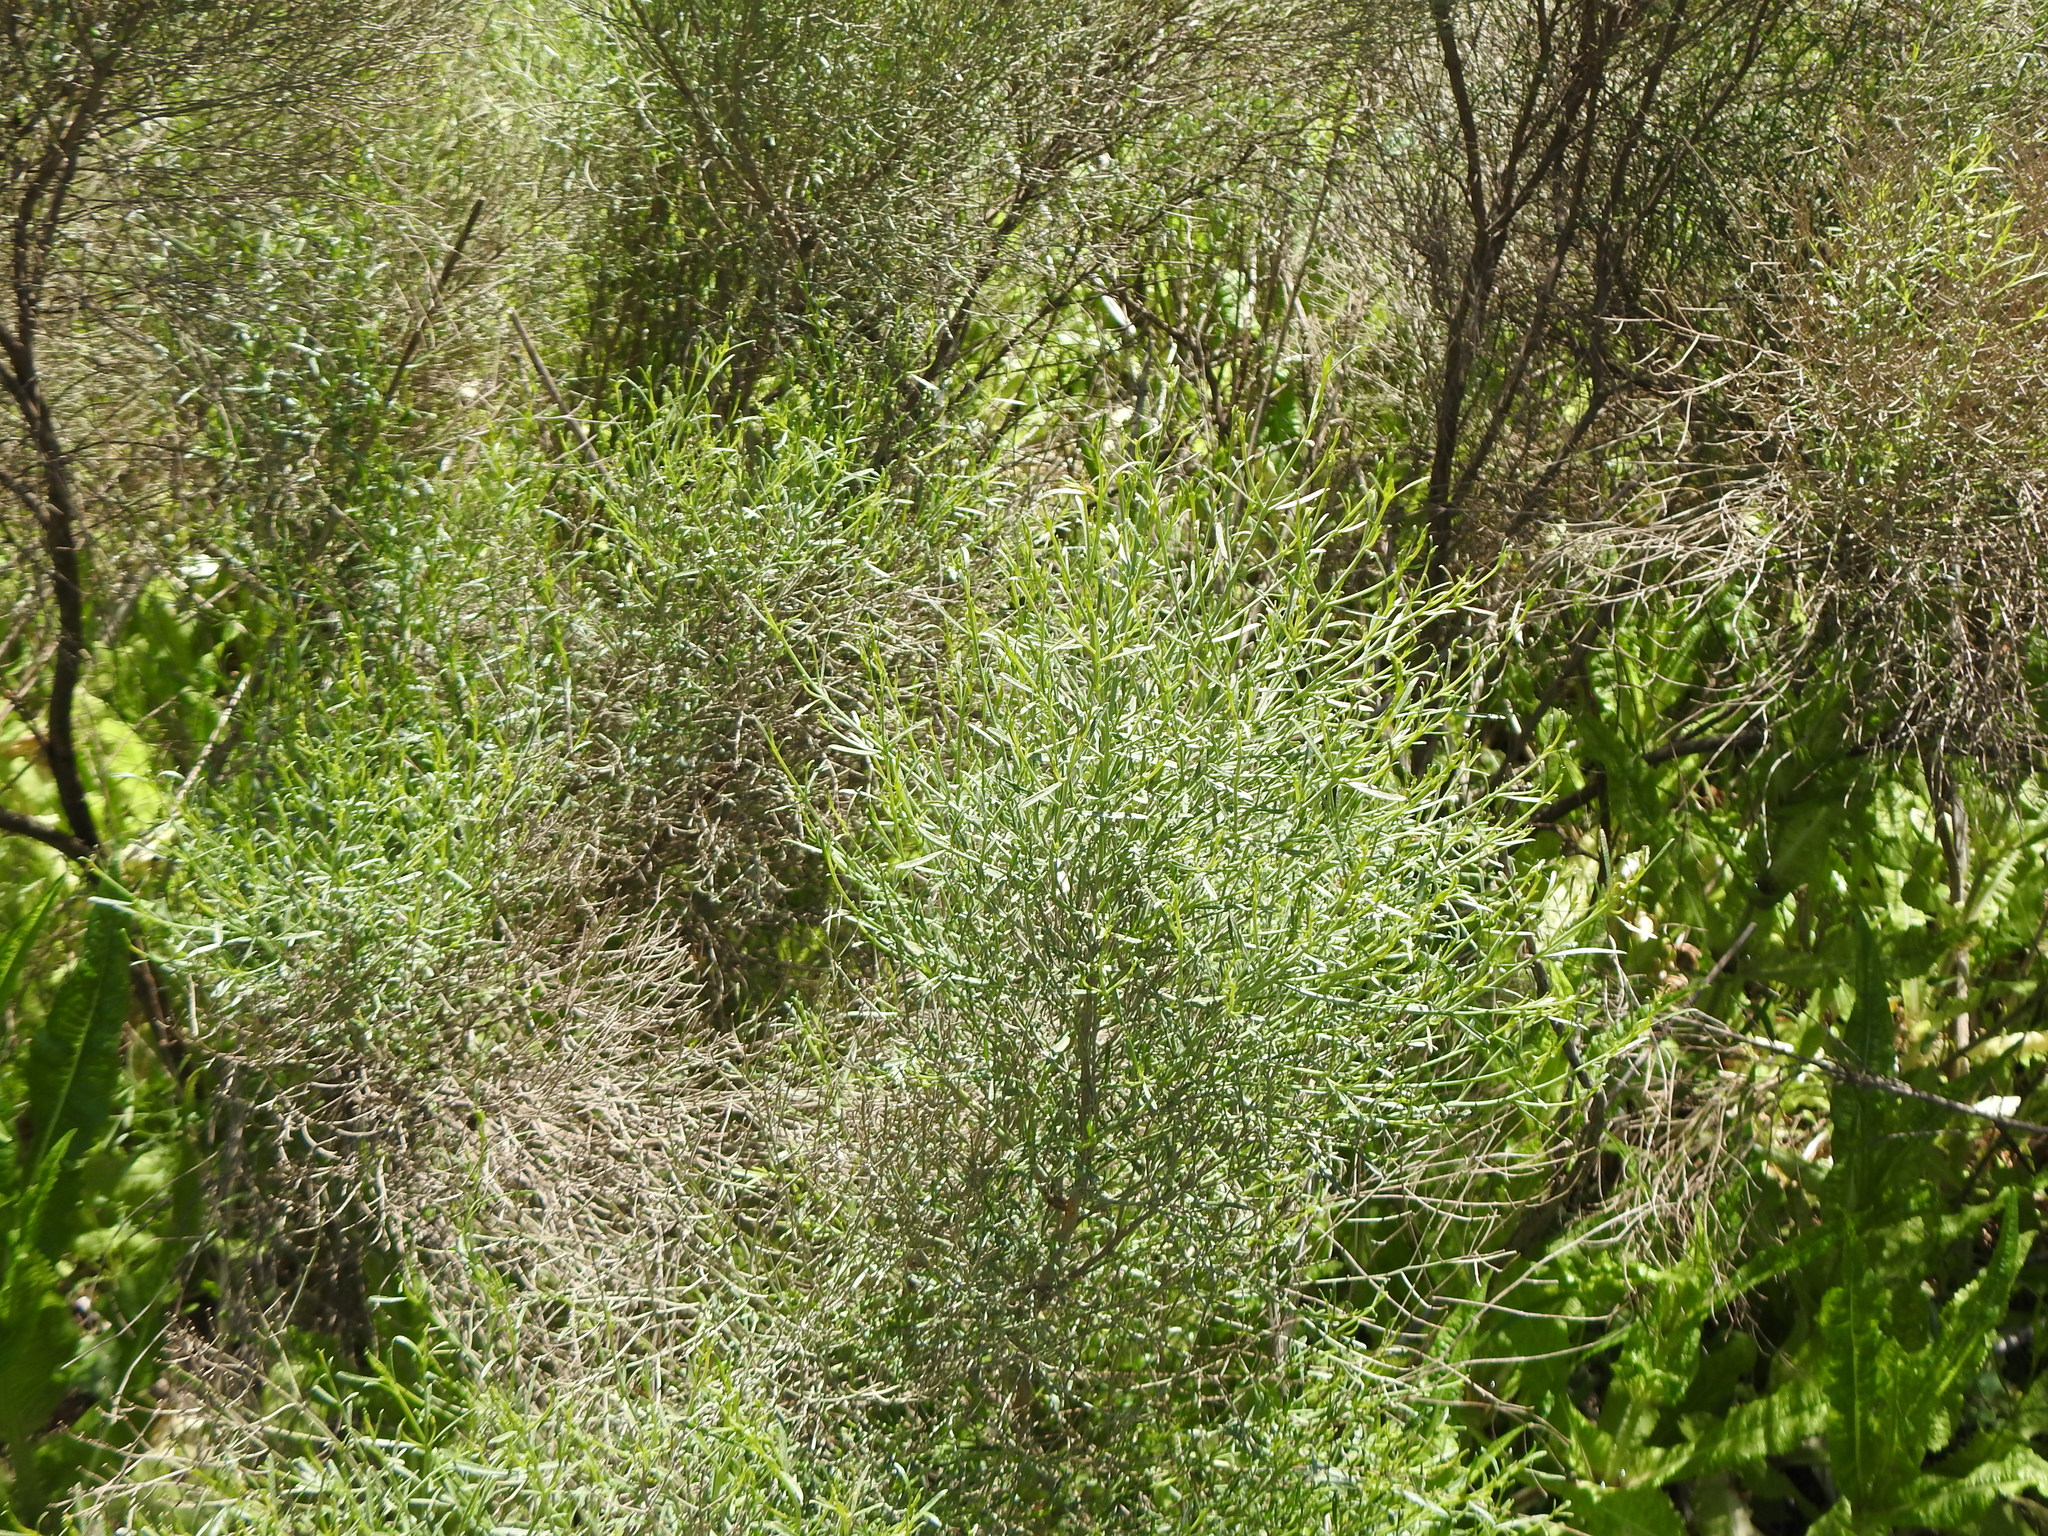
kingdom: Plantae
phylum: Tracheophyta
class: Magnoliopsida
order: Asterales
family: Asteraceae
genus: Baccharis
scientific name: Baccharis notosergila
